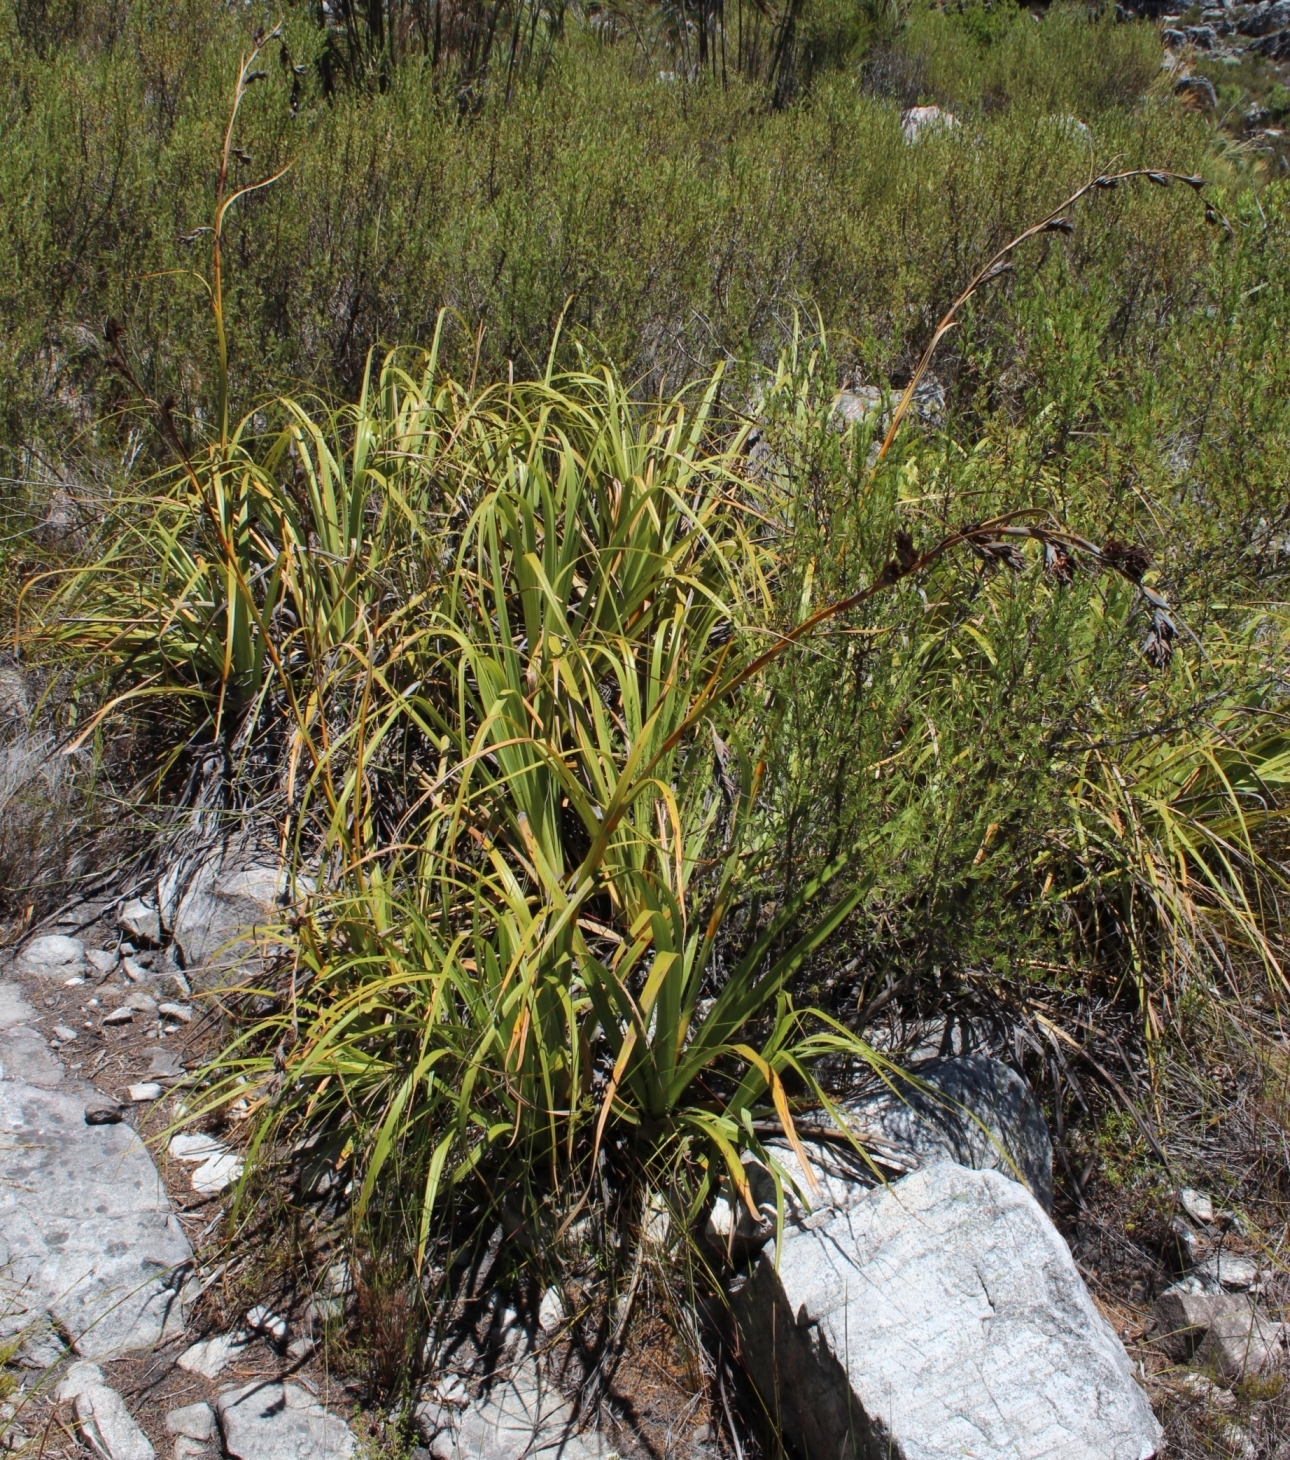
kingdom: Plantae
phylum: Tracheophyta
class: Liliopsida
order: Poales
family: Cyperaceae
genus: Tetraria
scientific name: Tetraria thermalis
